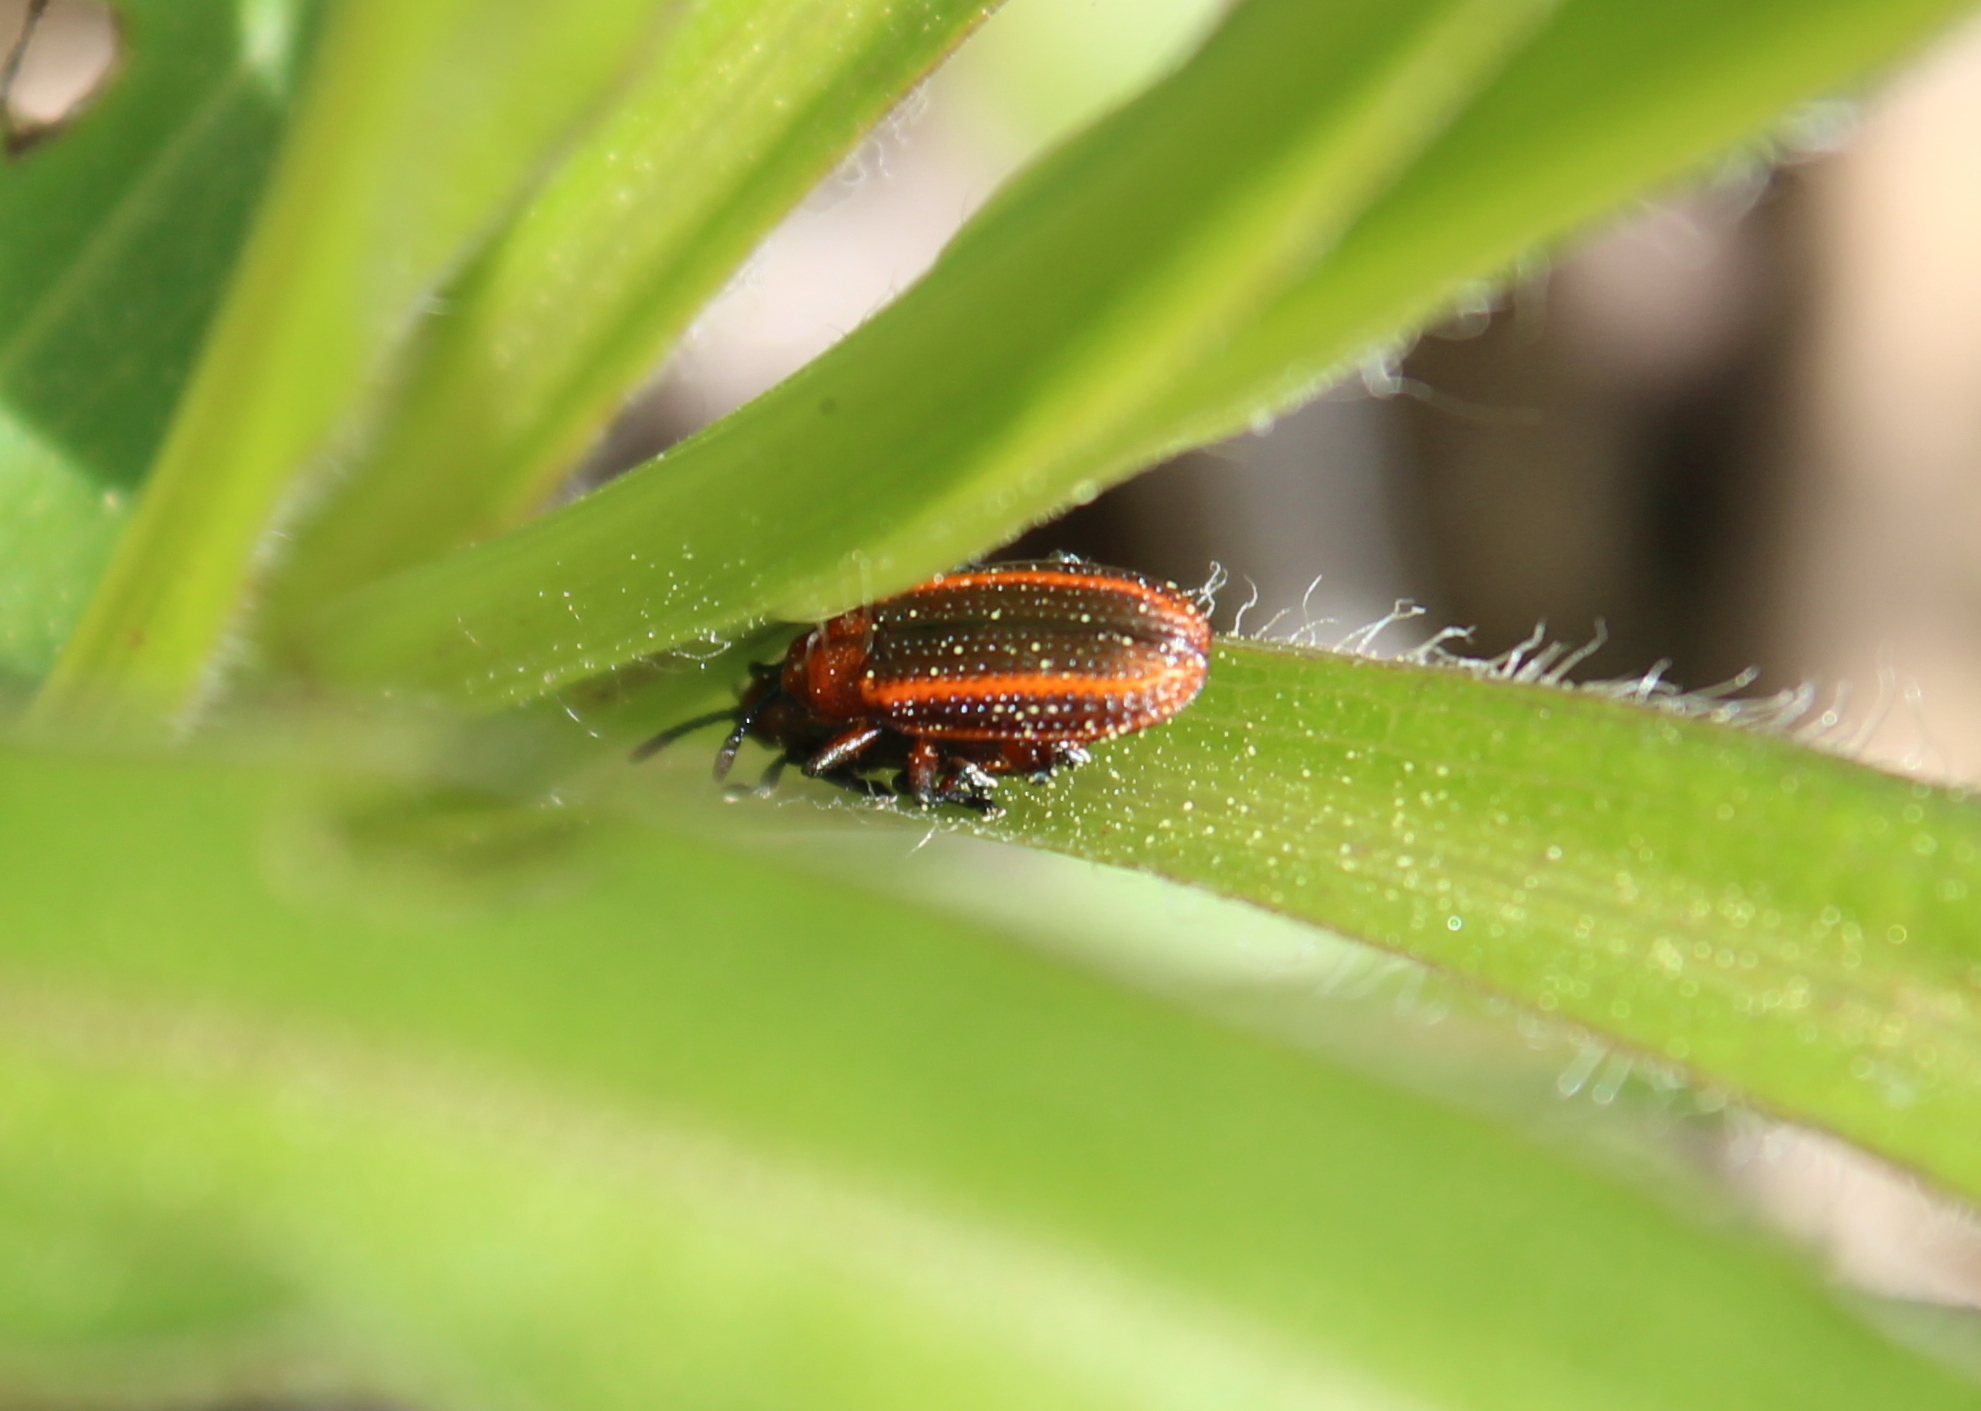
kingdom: Animalia
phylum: Arthropoda
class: Insecta
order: Coleoptera
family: Chrysomelidae
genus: Microrhopala
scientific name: Microrhopala vittata
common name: Goldenrod leaf miner beetle
